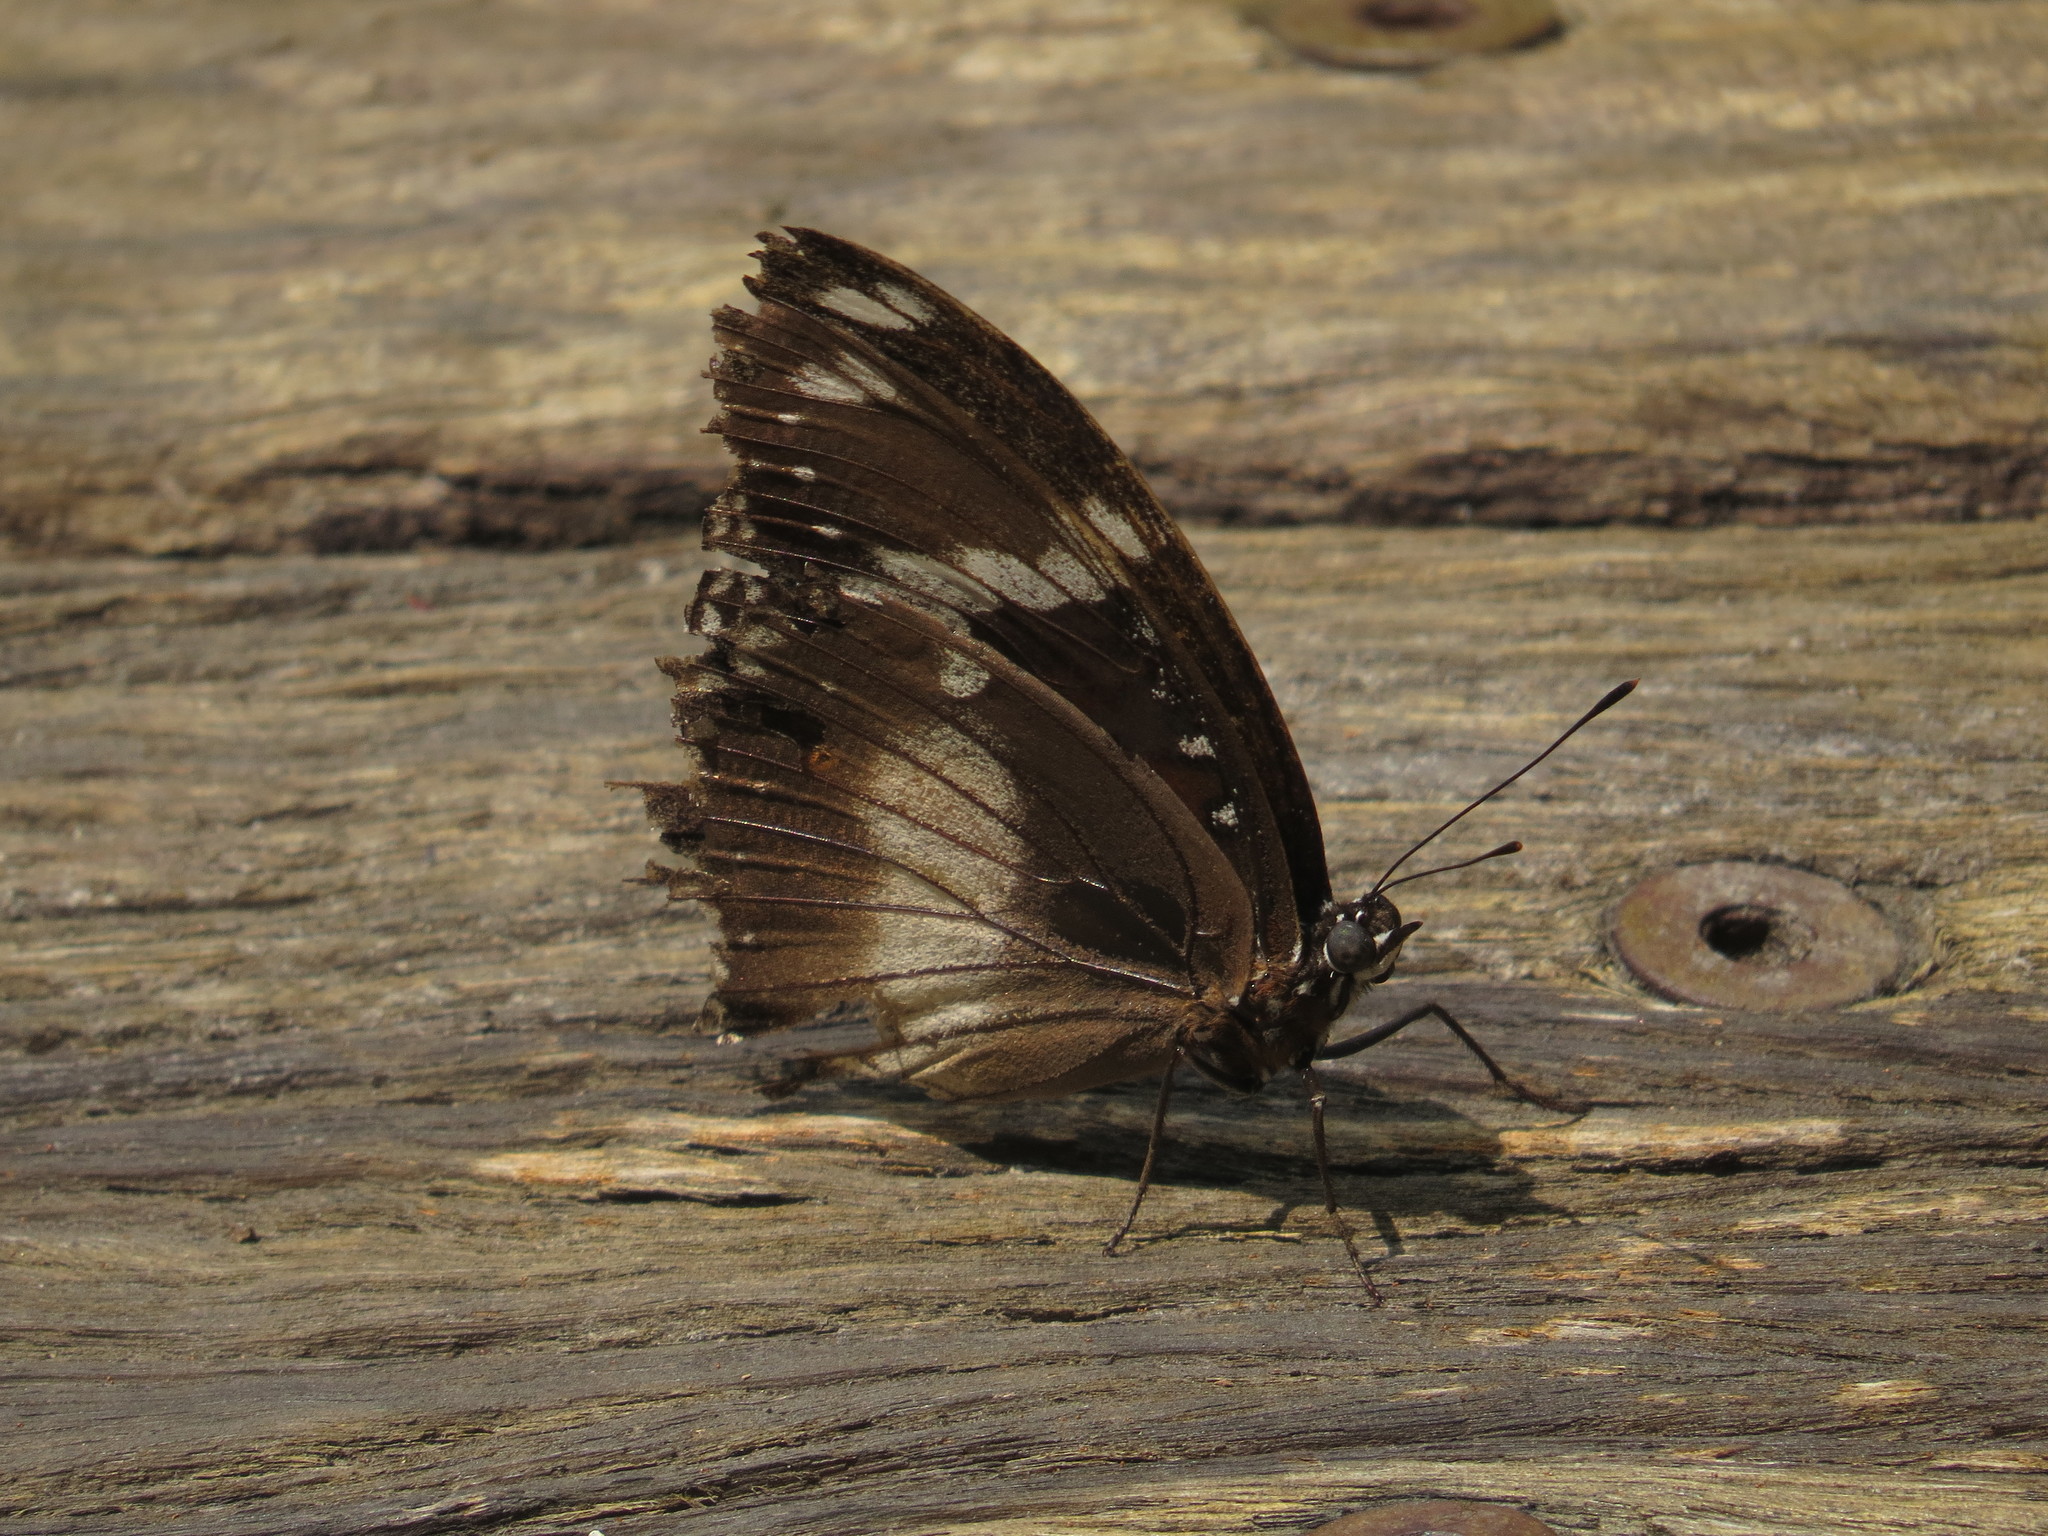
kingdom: Animalia
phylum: Arthropoda
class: Insecta
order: Lepidoptera
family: Nymphalidae
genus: Hypolimnas
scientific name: Hypolimnas bolina
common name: Great eggfly
